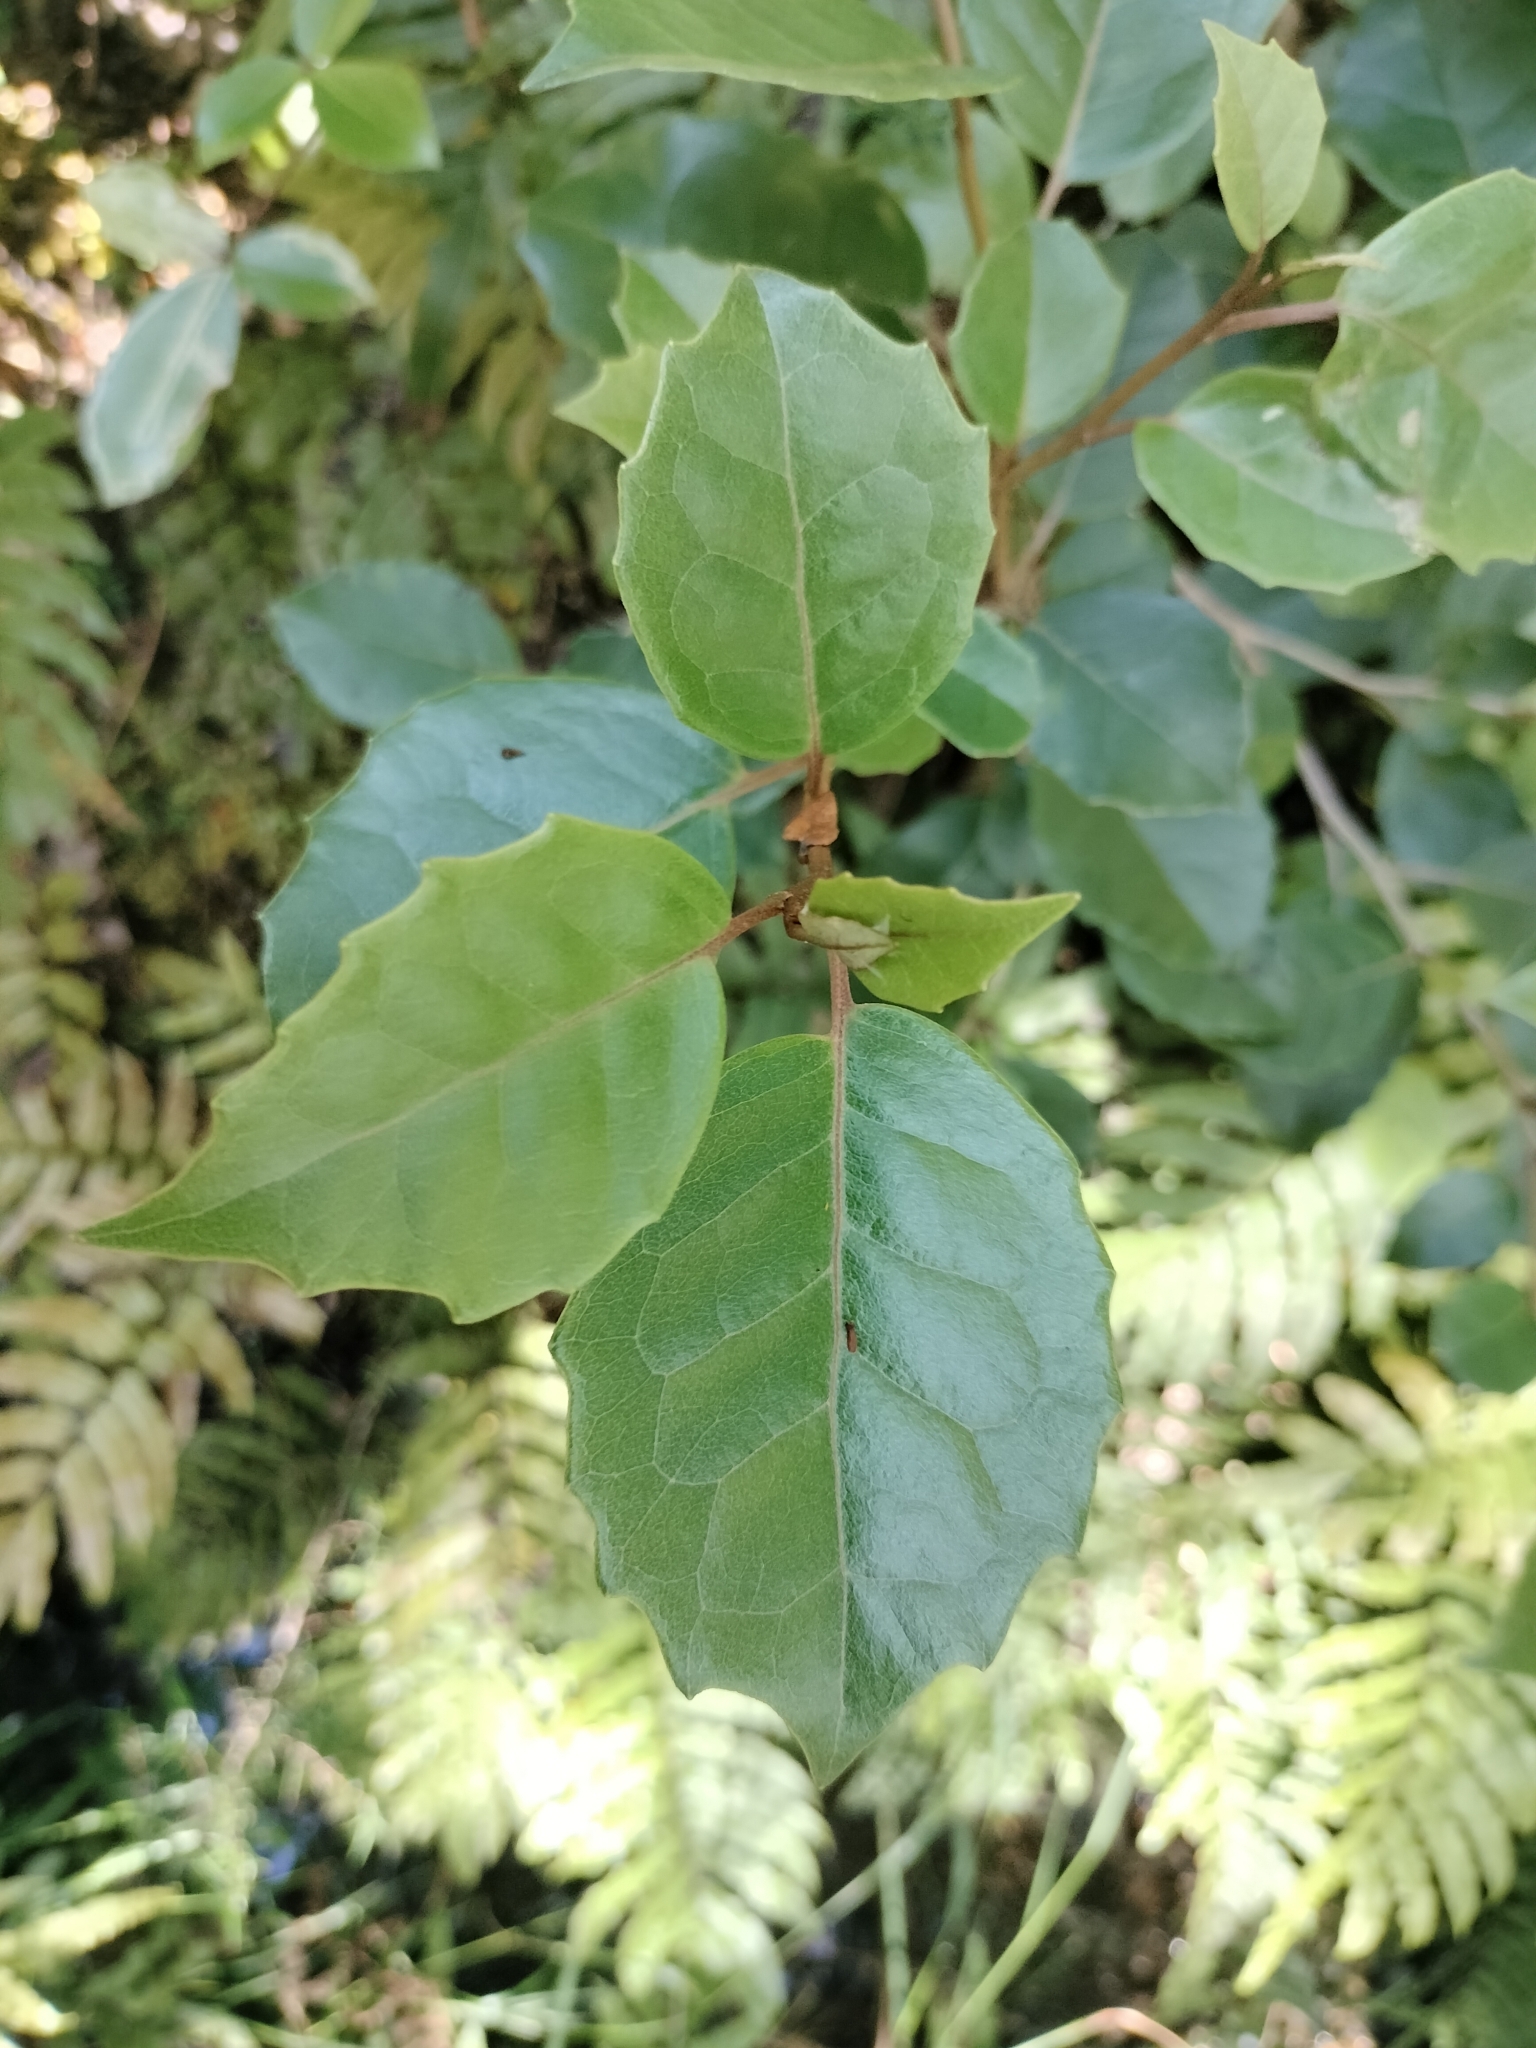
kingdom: Plantae
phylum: Tracheophyta
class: Magnoliopsida
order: Asterales
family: Asteraceae
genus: Olearia
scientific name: Olearia arborescens
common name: Glossy tree daisy
